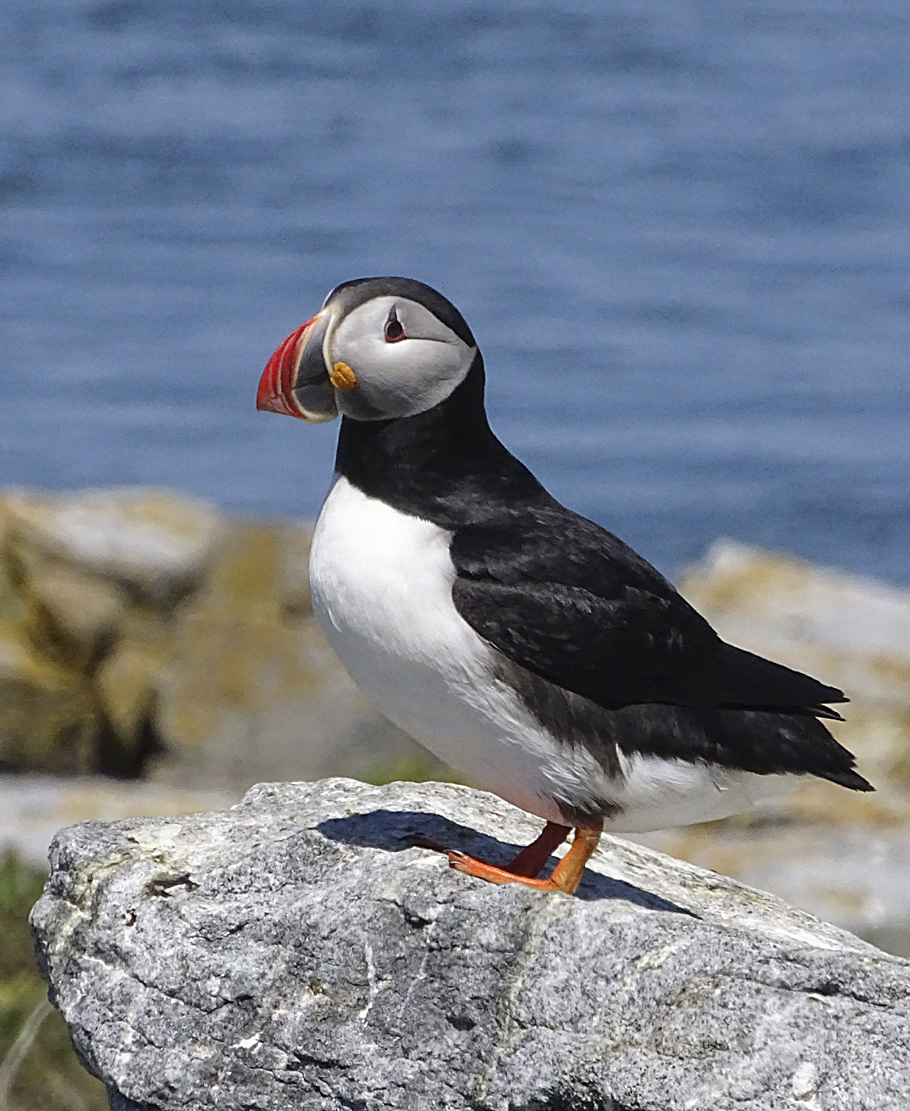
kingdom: Animalia
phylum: Chordata
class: Aves
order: Charadriiformes
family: Alcidae
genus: Fratercula
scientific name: Fratercula arctica
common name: Atlantic puffin
